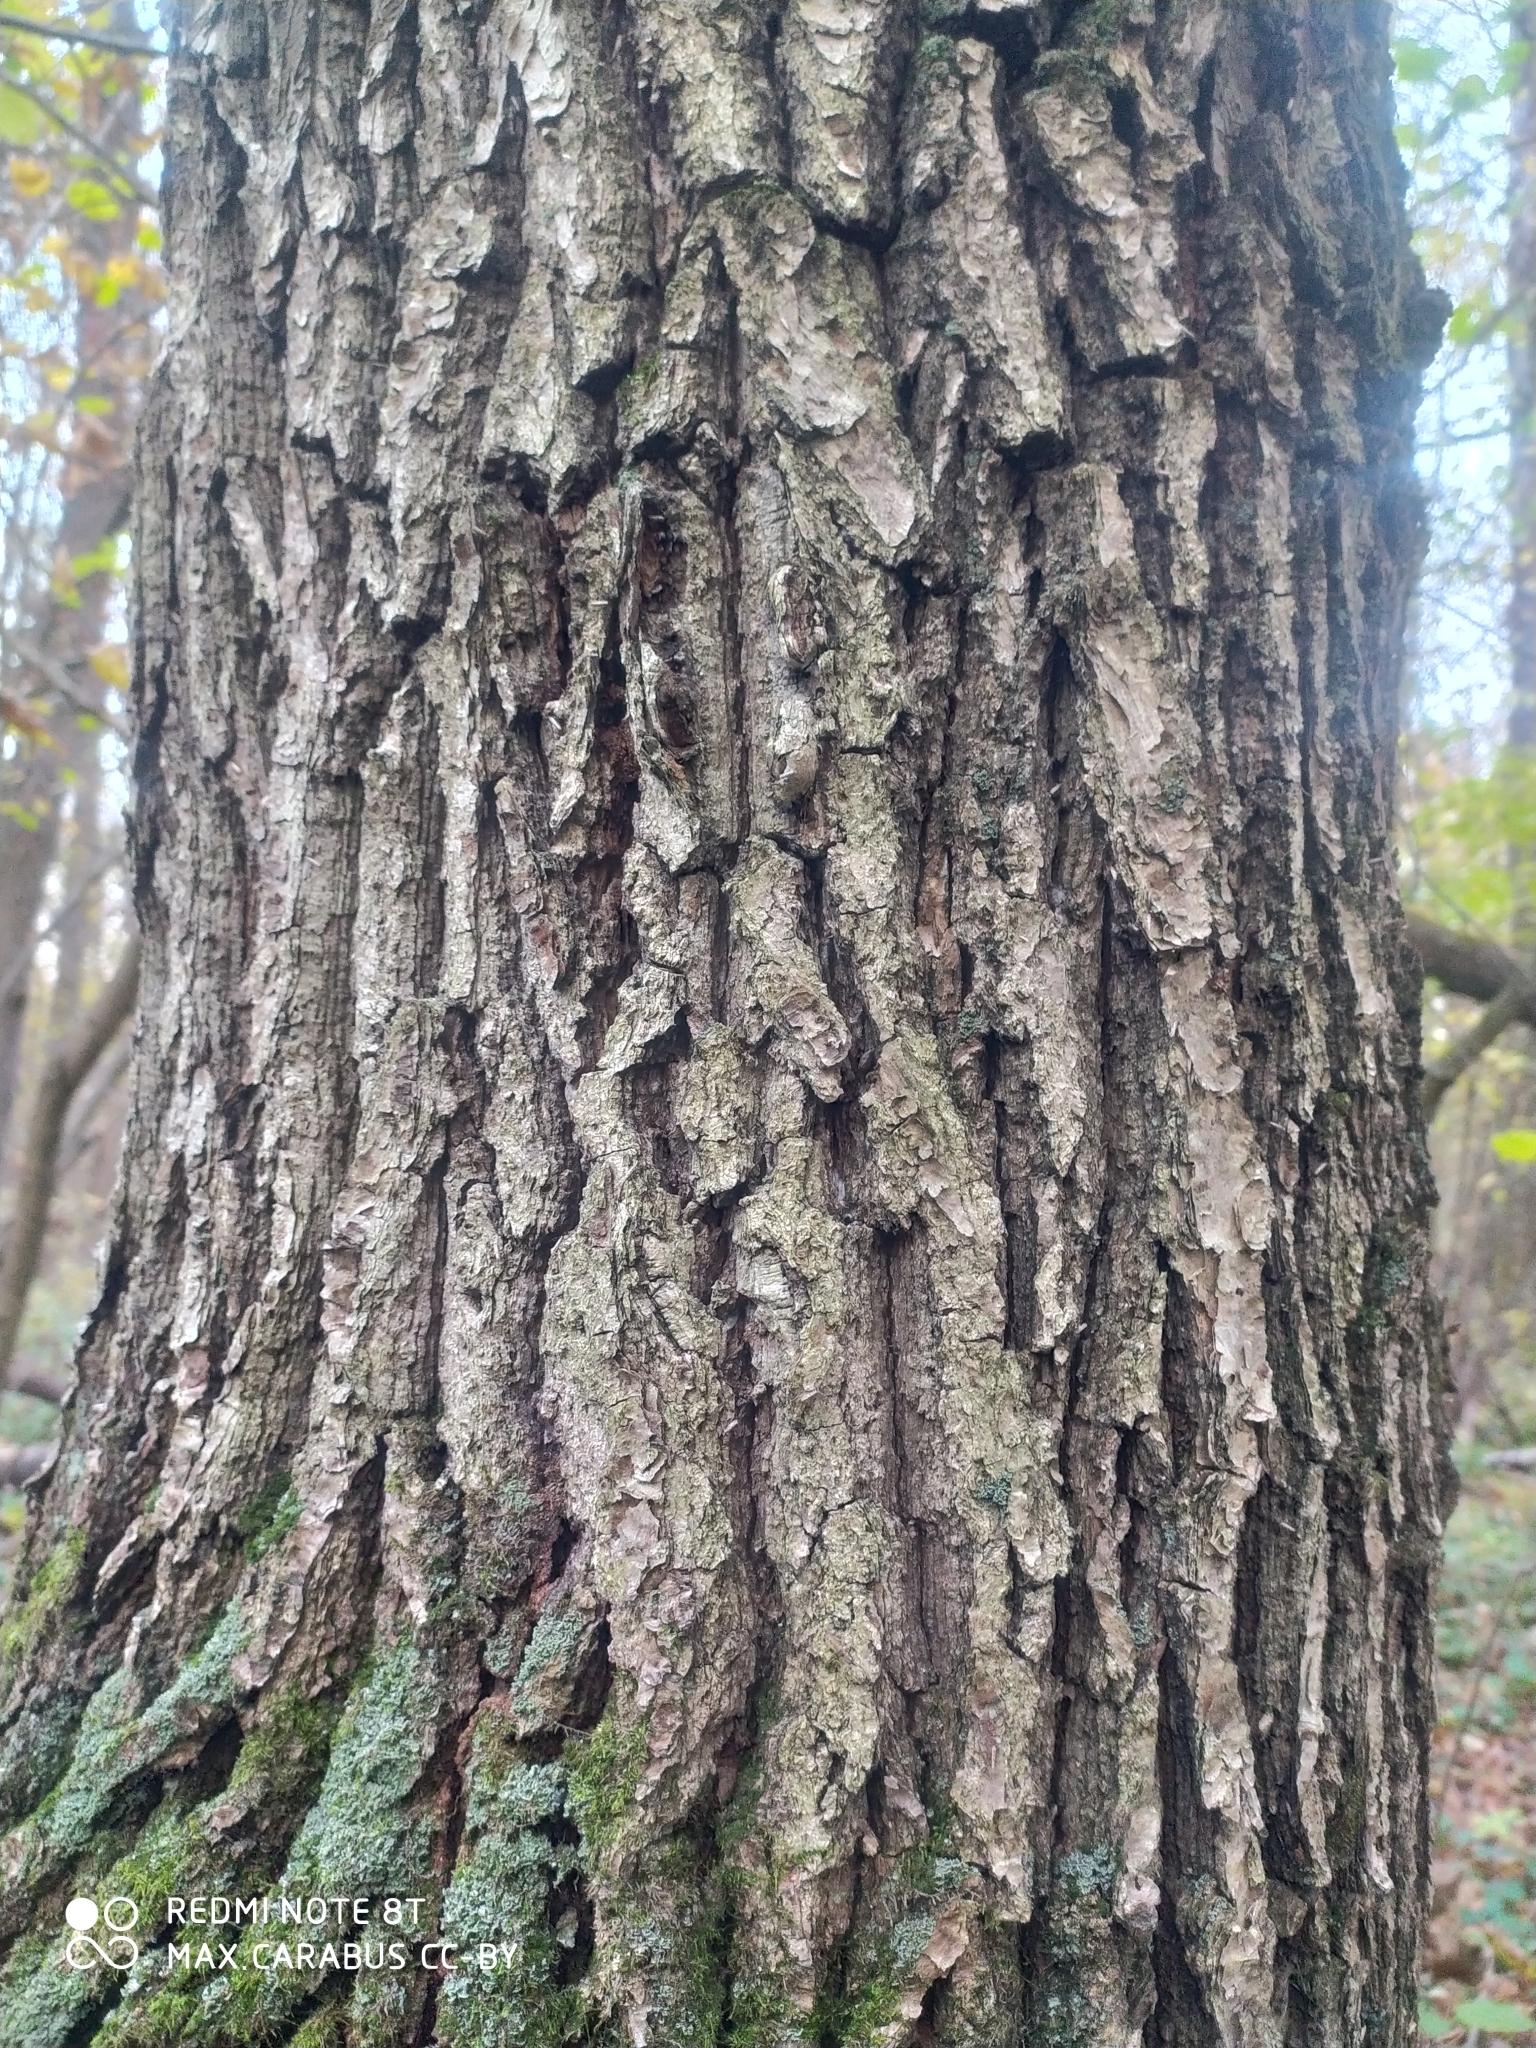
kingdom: Plantae
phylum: Tracheophyta
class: Magnoliopsida
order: Fagales
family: Fagaceae
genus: Quercus
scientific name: Quercus robur
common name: Pedunculate oak
